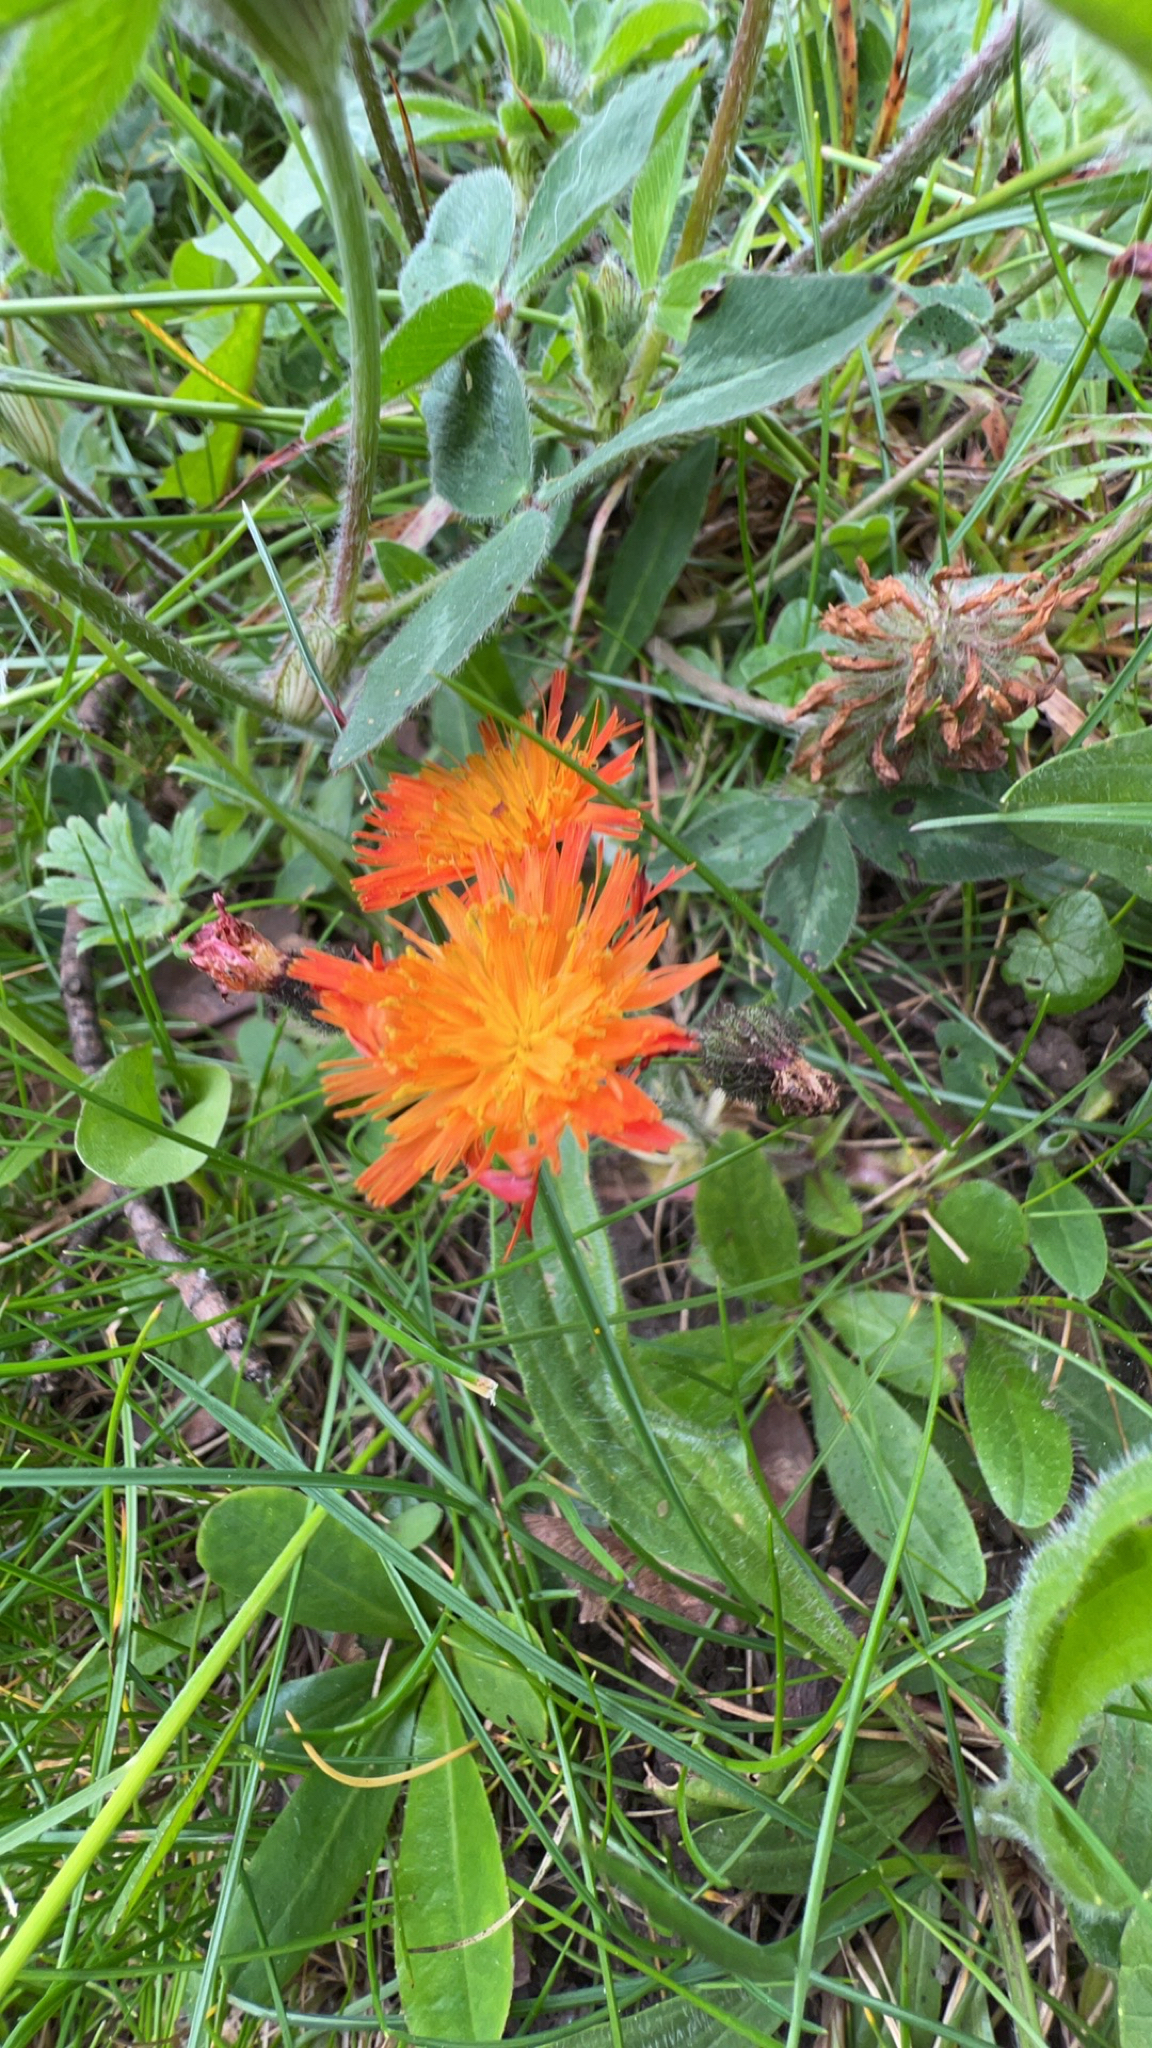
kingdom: Plantae
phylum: Tracheophyta
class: Magnoliopsida
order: Asterales
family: Asteraceae
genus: Pilosella
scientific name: Pilosella aurantiaca
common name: Fox-and-cubs
